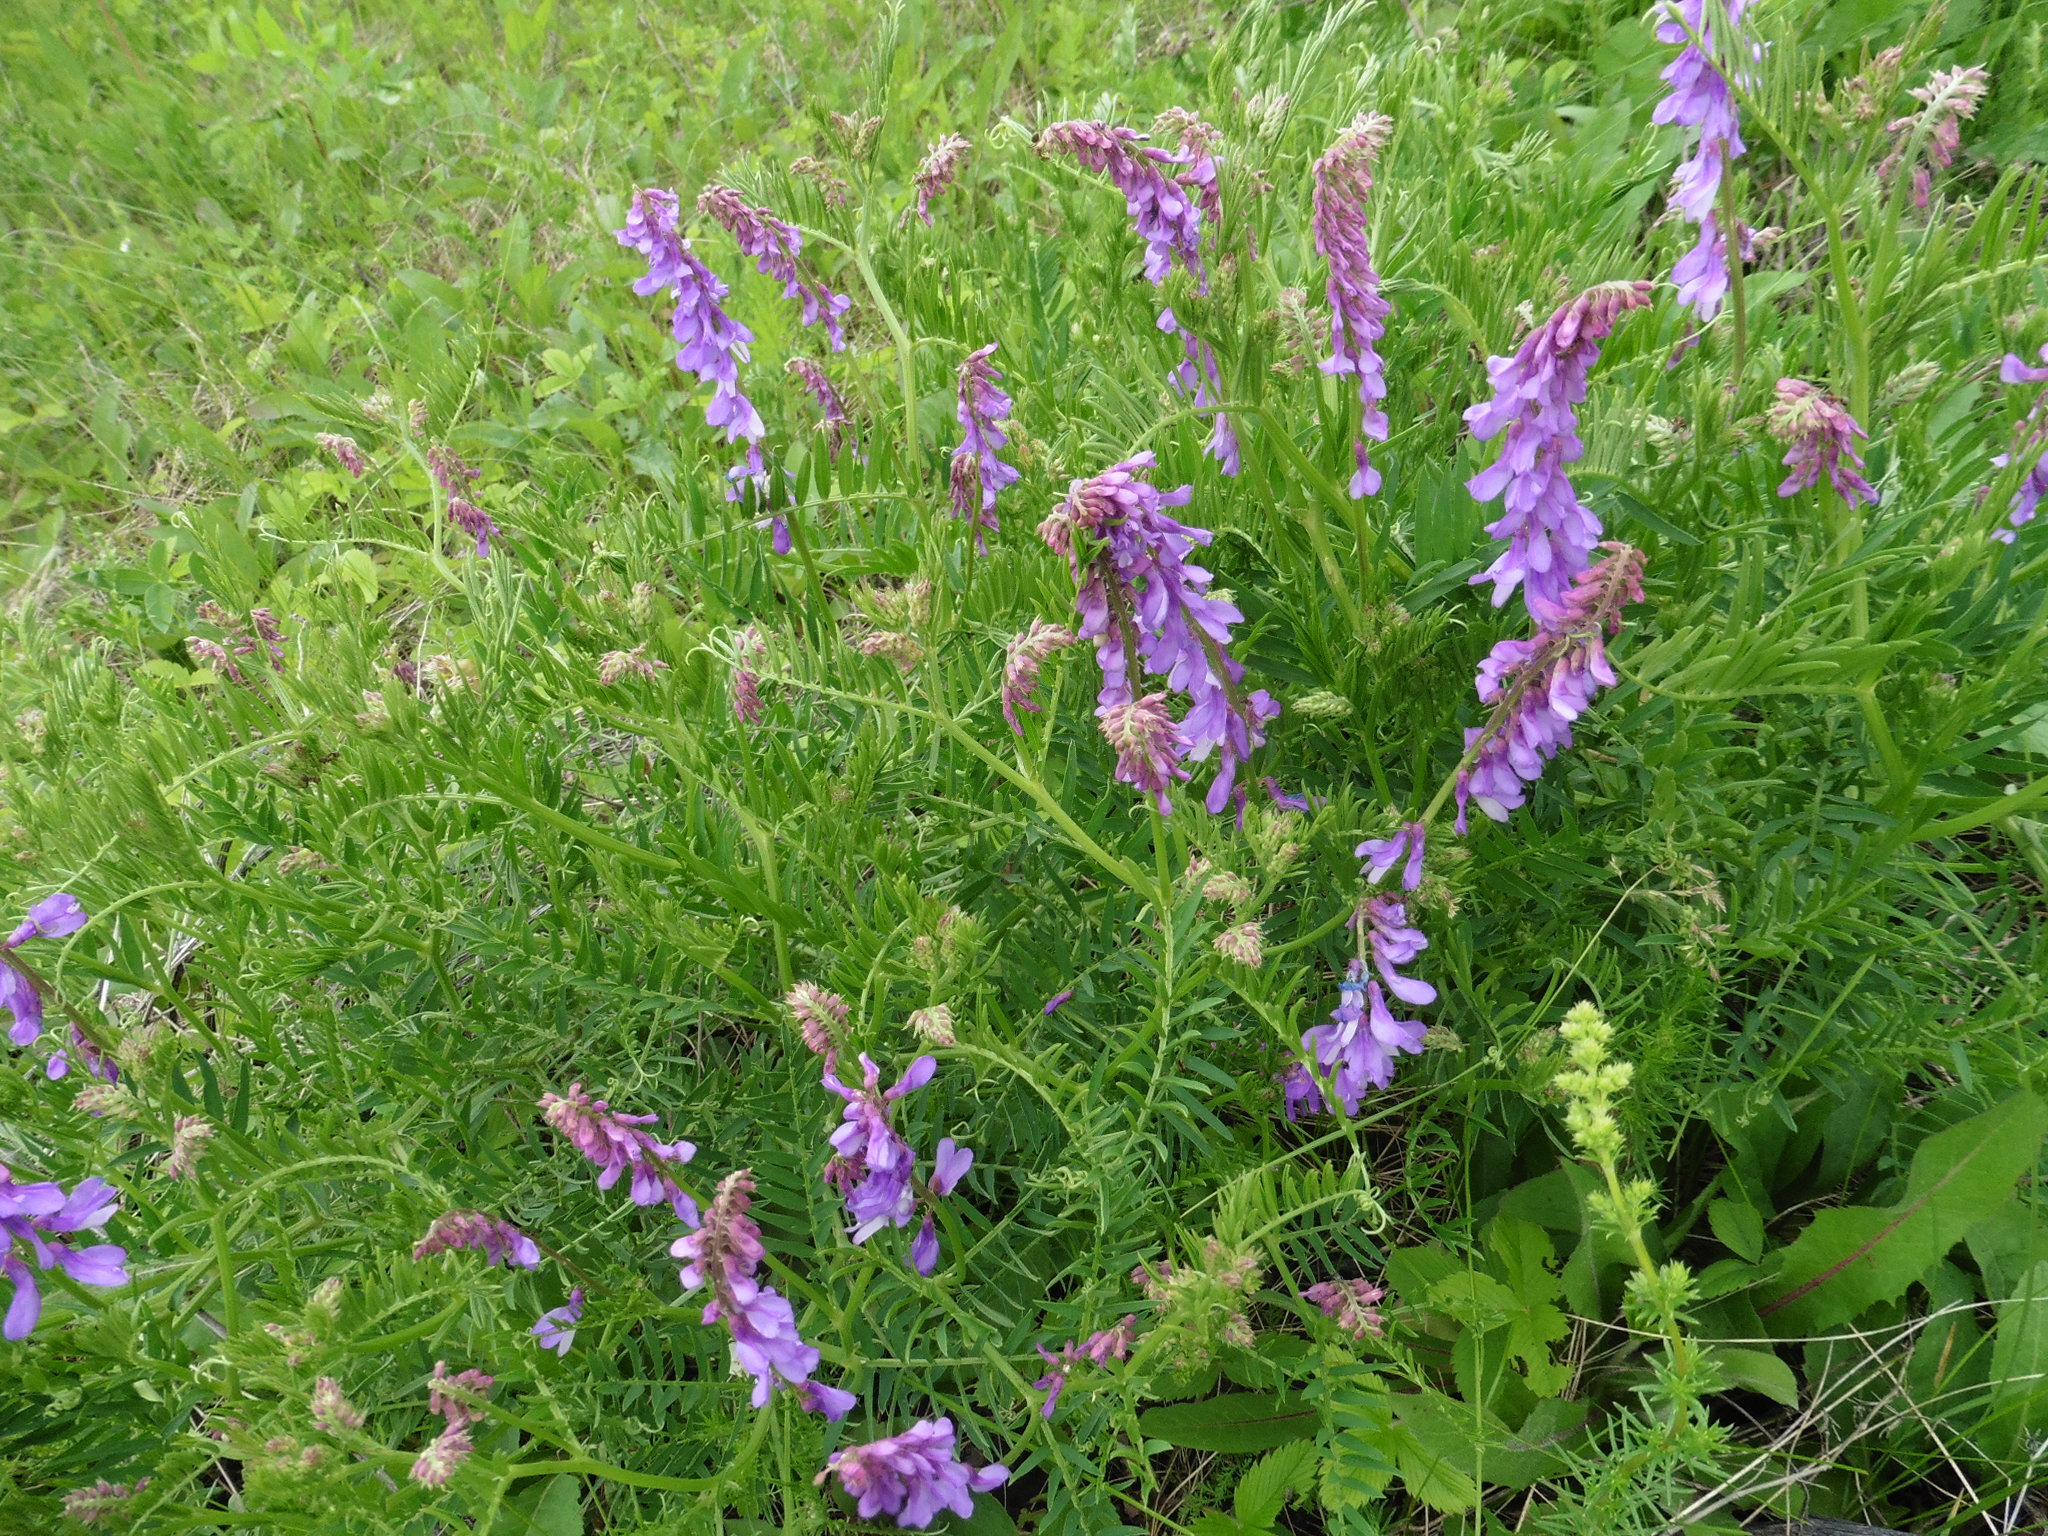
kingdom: Plantae
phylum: Tracheophyta
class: Magnoliopsida
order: Fabales
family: Fabaceae
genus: Vicia
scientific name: Vicia tenuifolia
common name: Fine-leaved vetch
